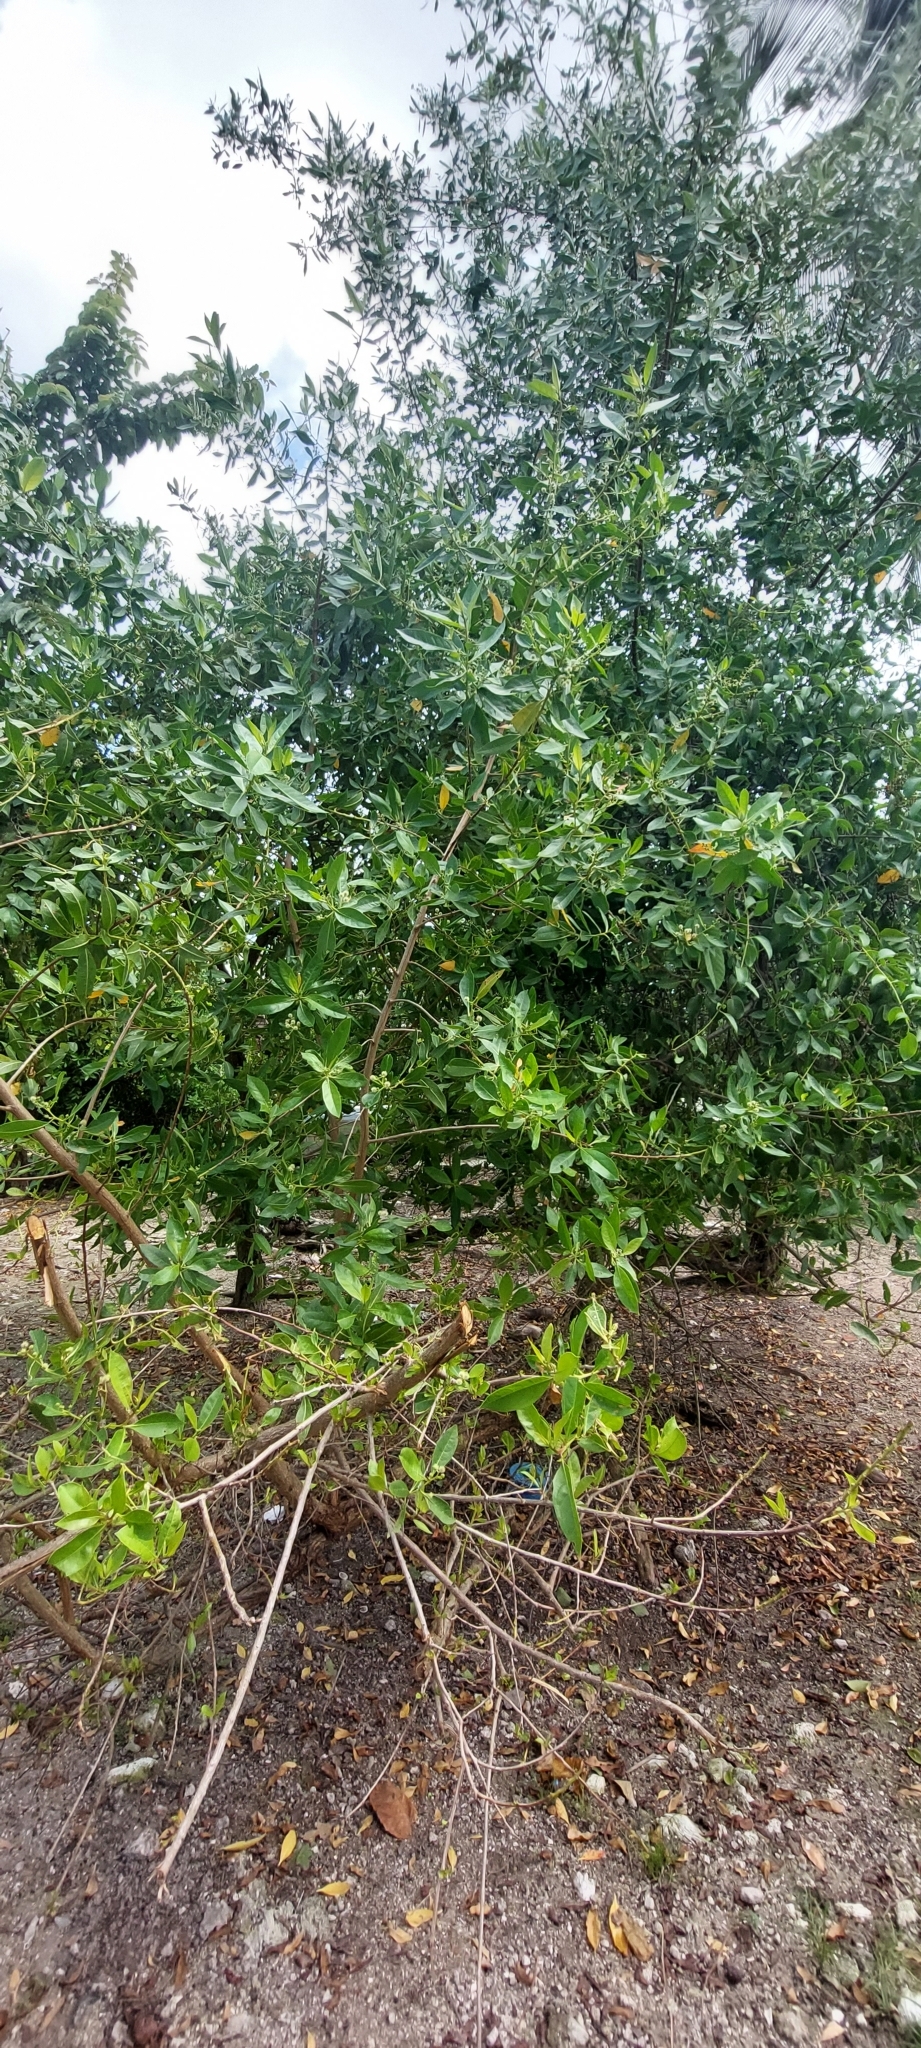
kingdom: Plantae
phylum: Tracheophyta
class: Magnoliopsida
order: Myrtales
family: Combretaceae
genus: Conocarpus
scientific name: Conocarpus erectus
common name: Button mangrove
